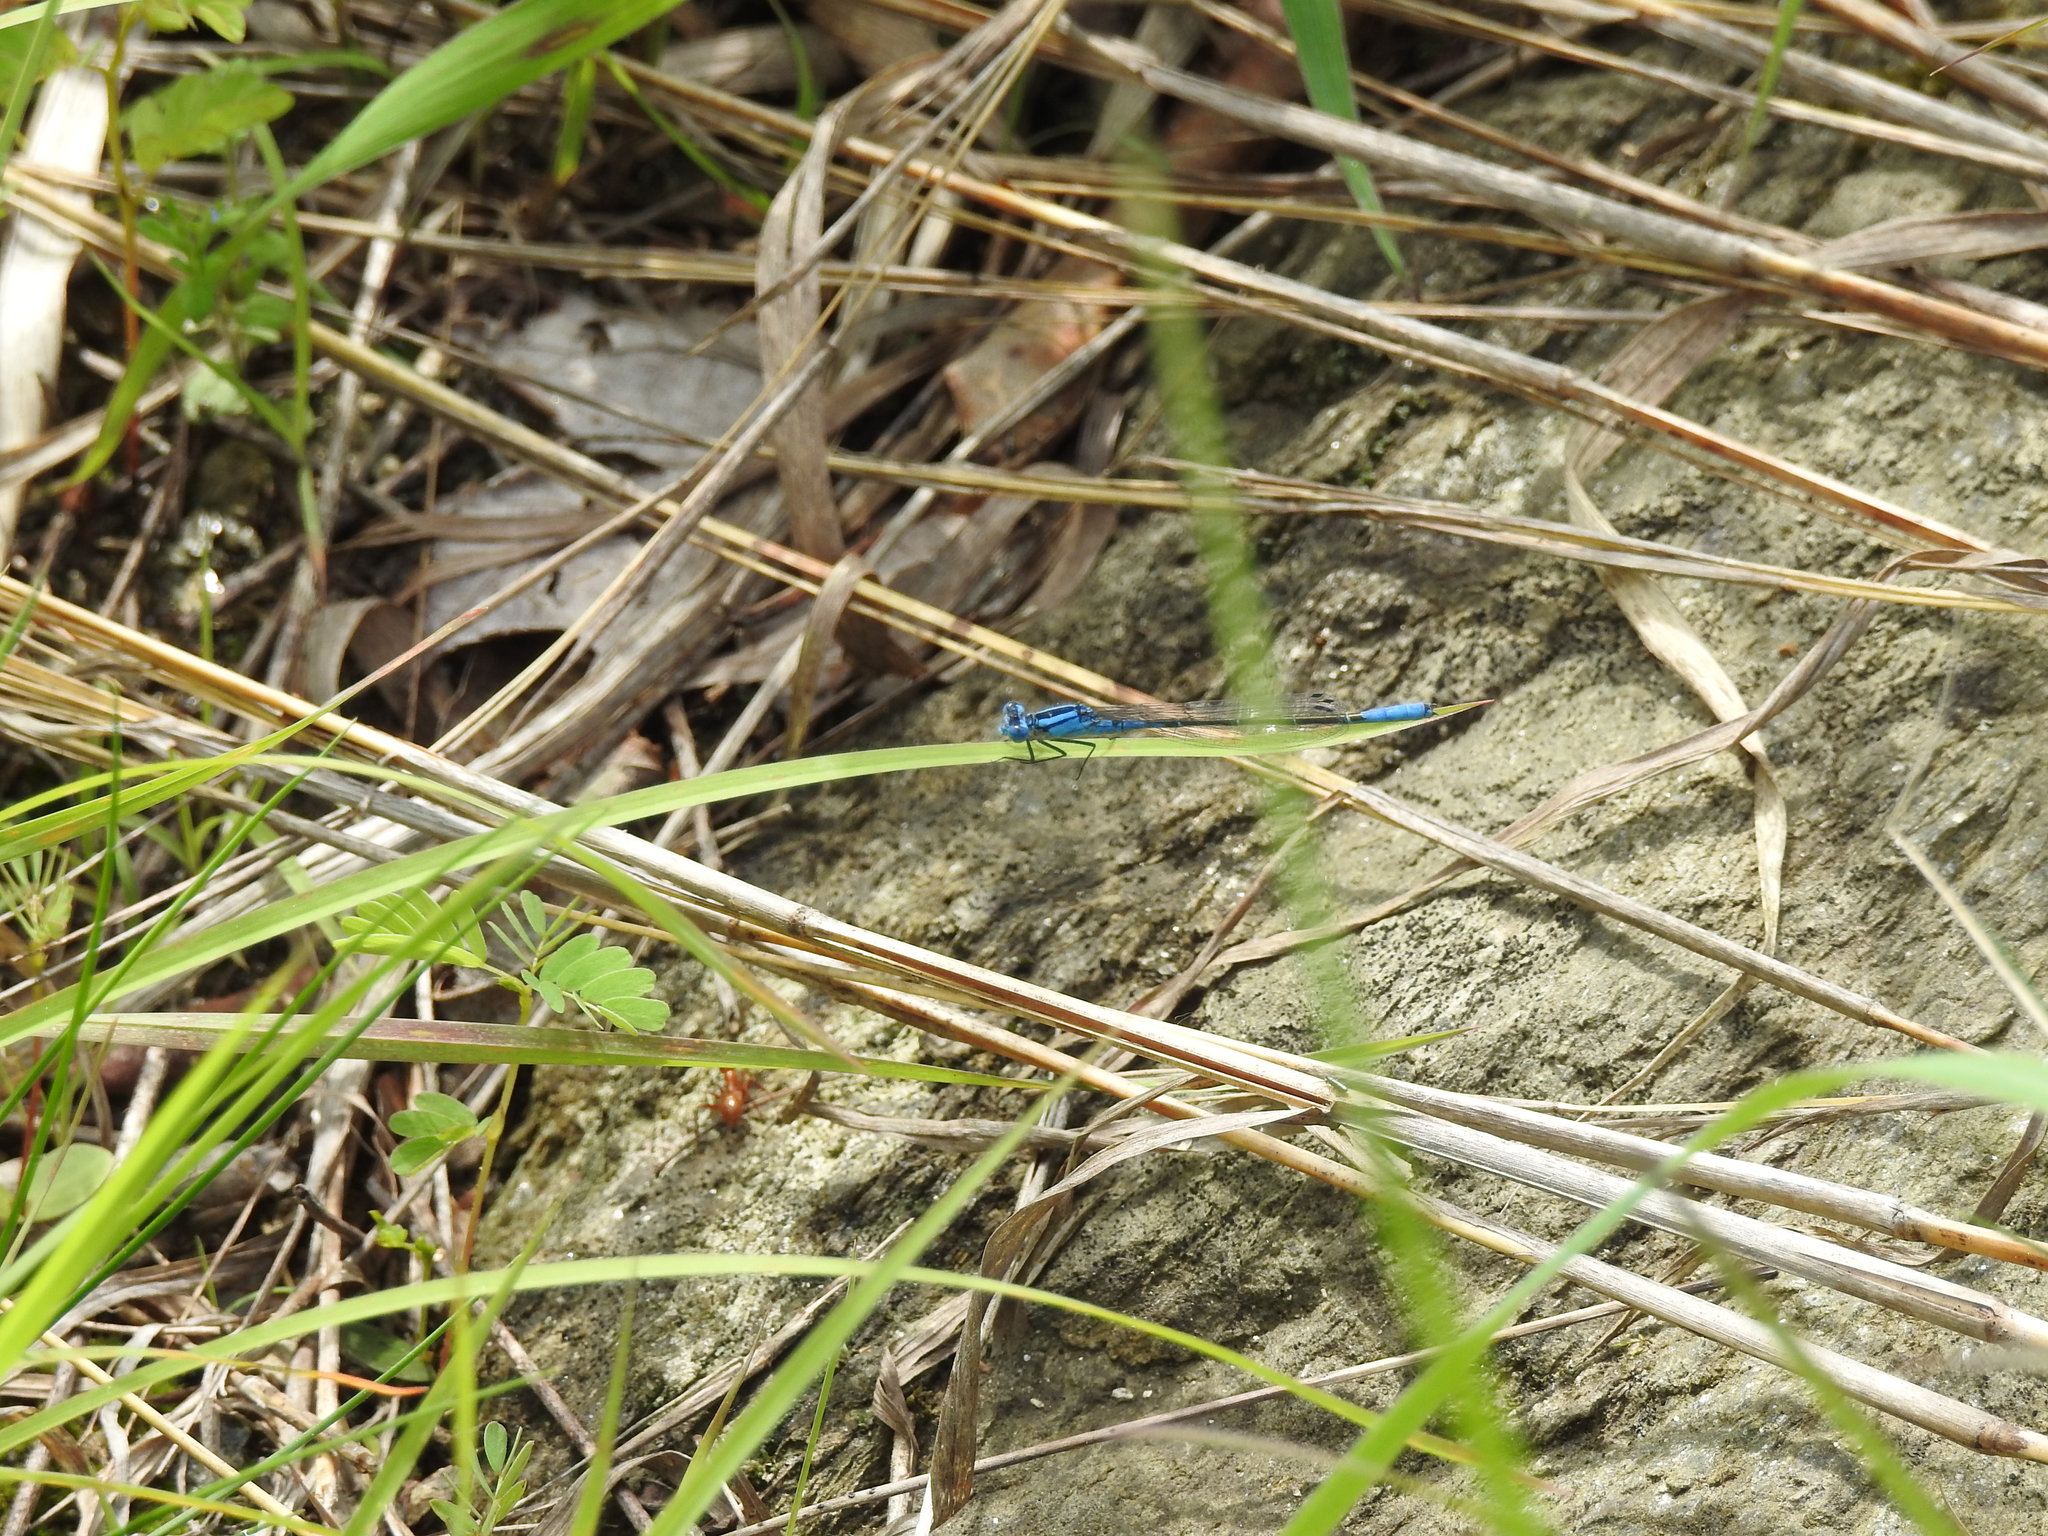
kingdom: Animalia
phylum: Arthropoda
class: Insecta
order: Odonata
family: Coenagrionidae
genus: Enallagma
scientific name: Enallagma aspersum
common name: Azure bluet
